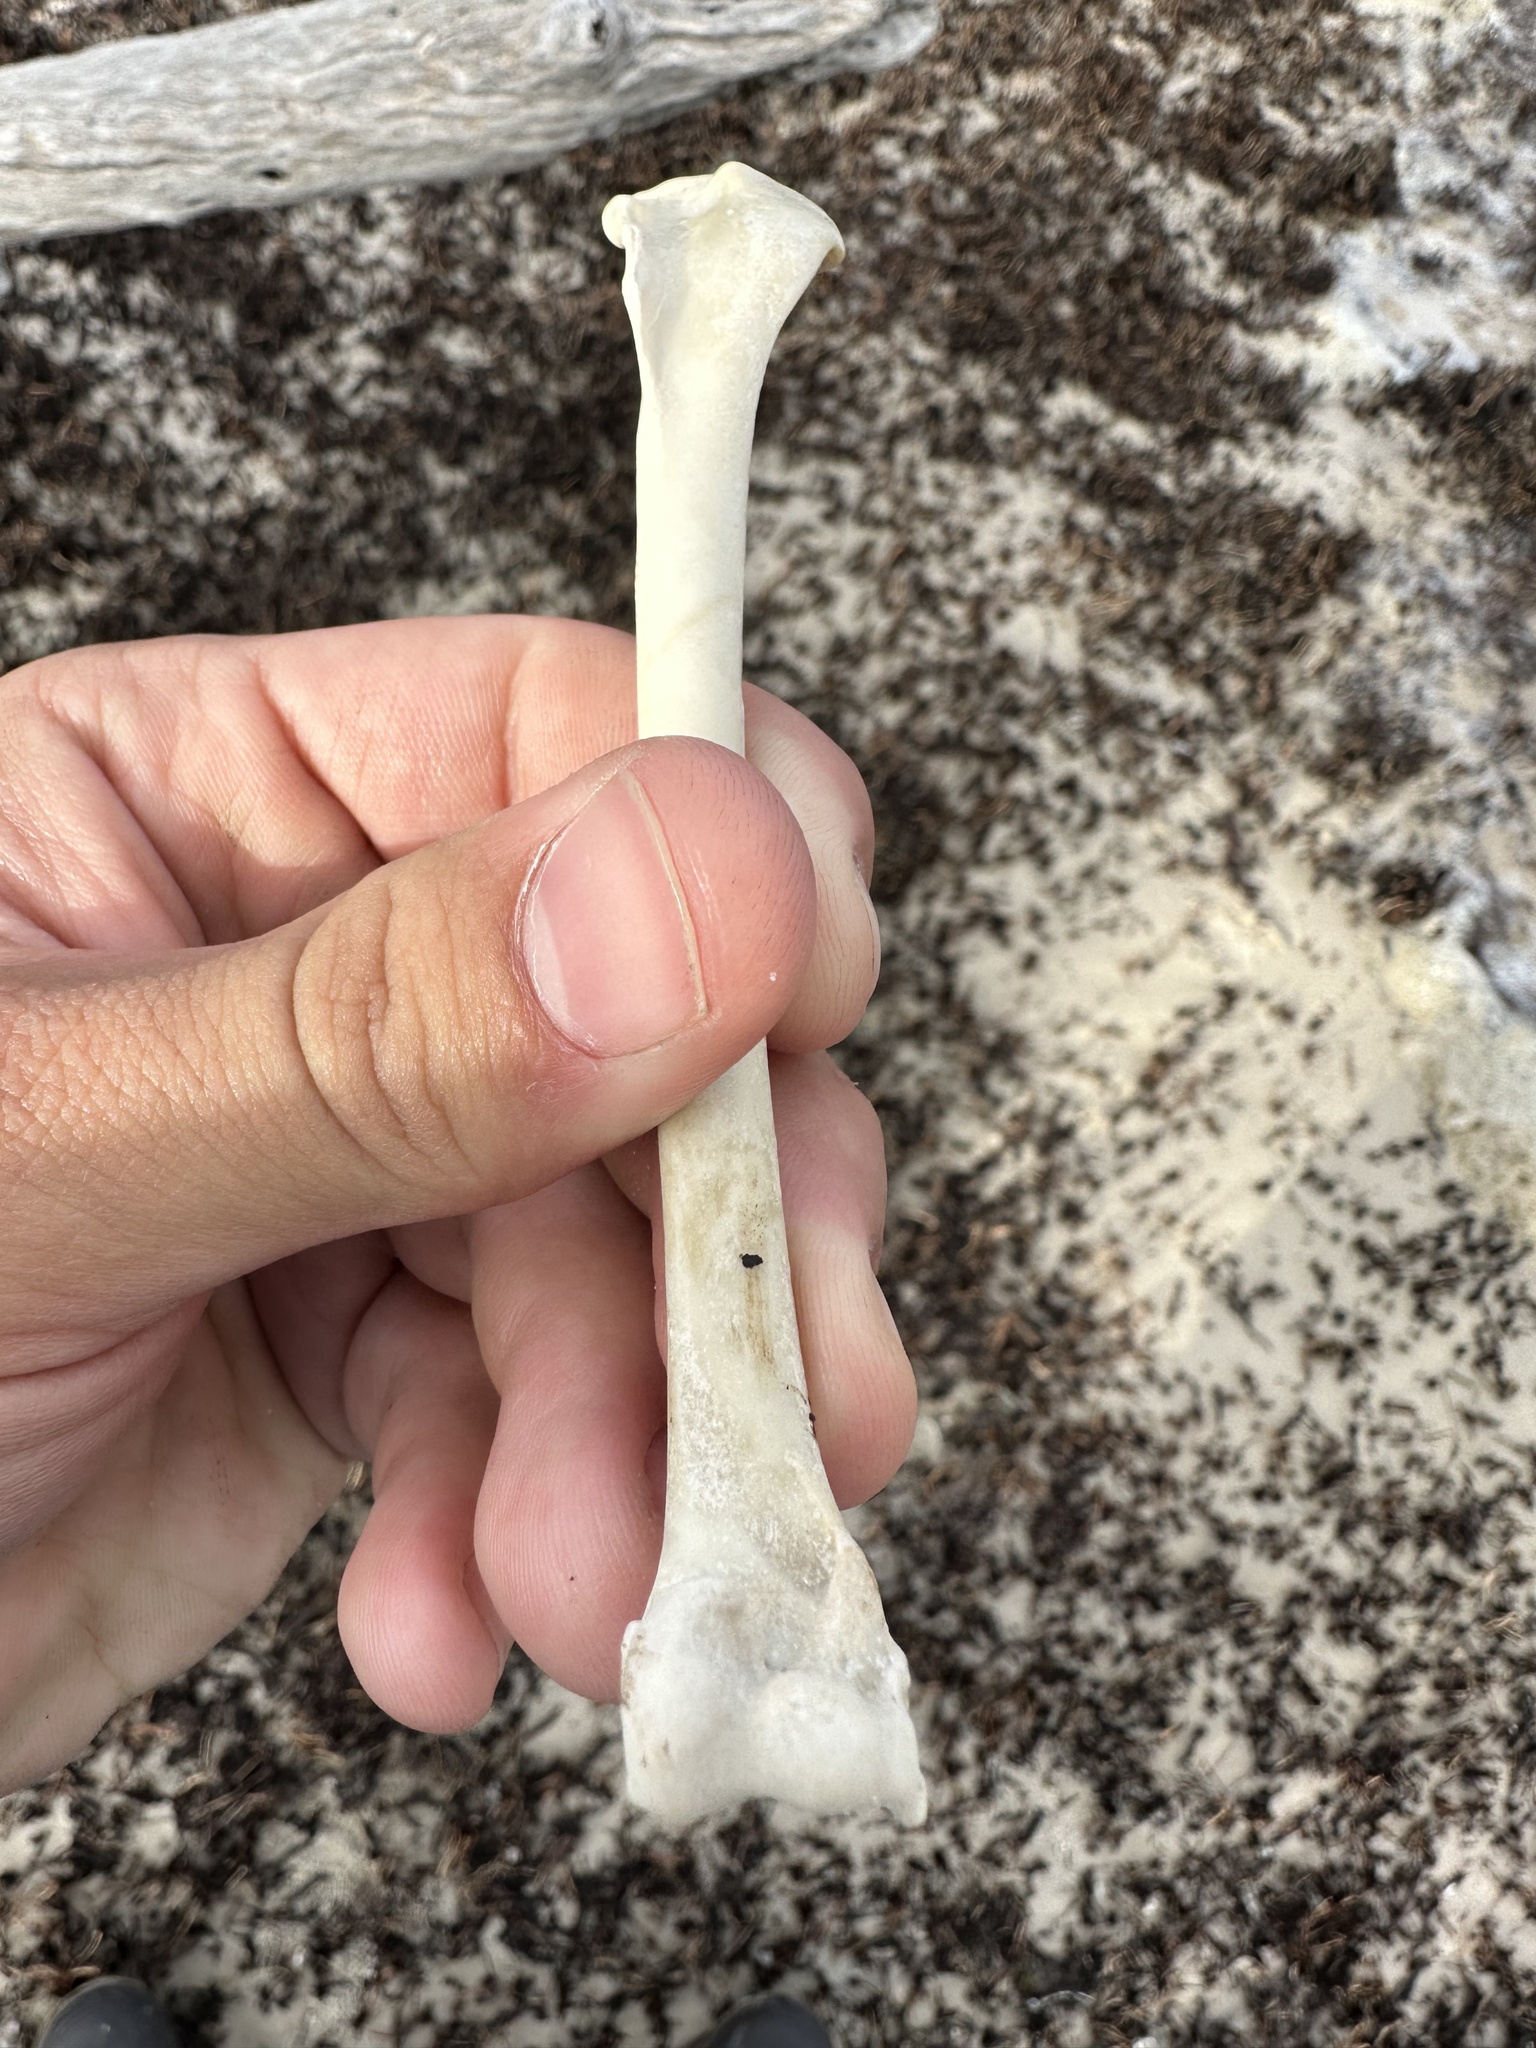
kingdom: Animalia
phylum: Chordata
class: Aves
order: Suliformes
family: Phalacrocoracidae
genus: Phalacrocorax
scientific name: Phalacrocorax auritus
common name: Double-crested cormorant
